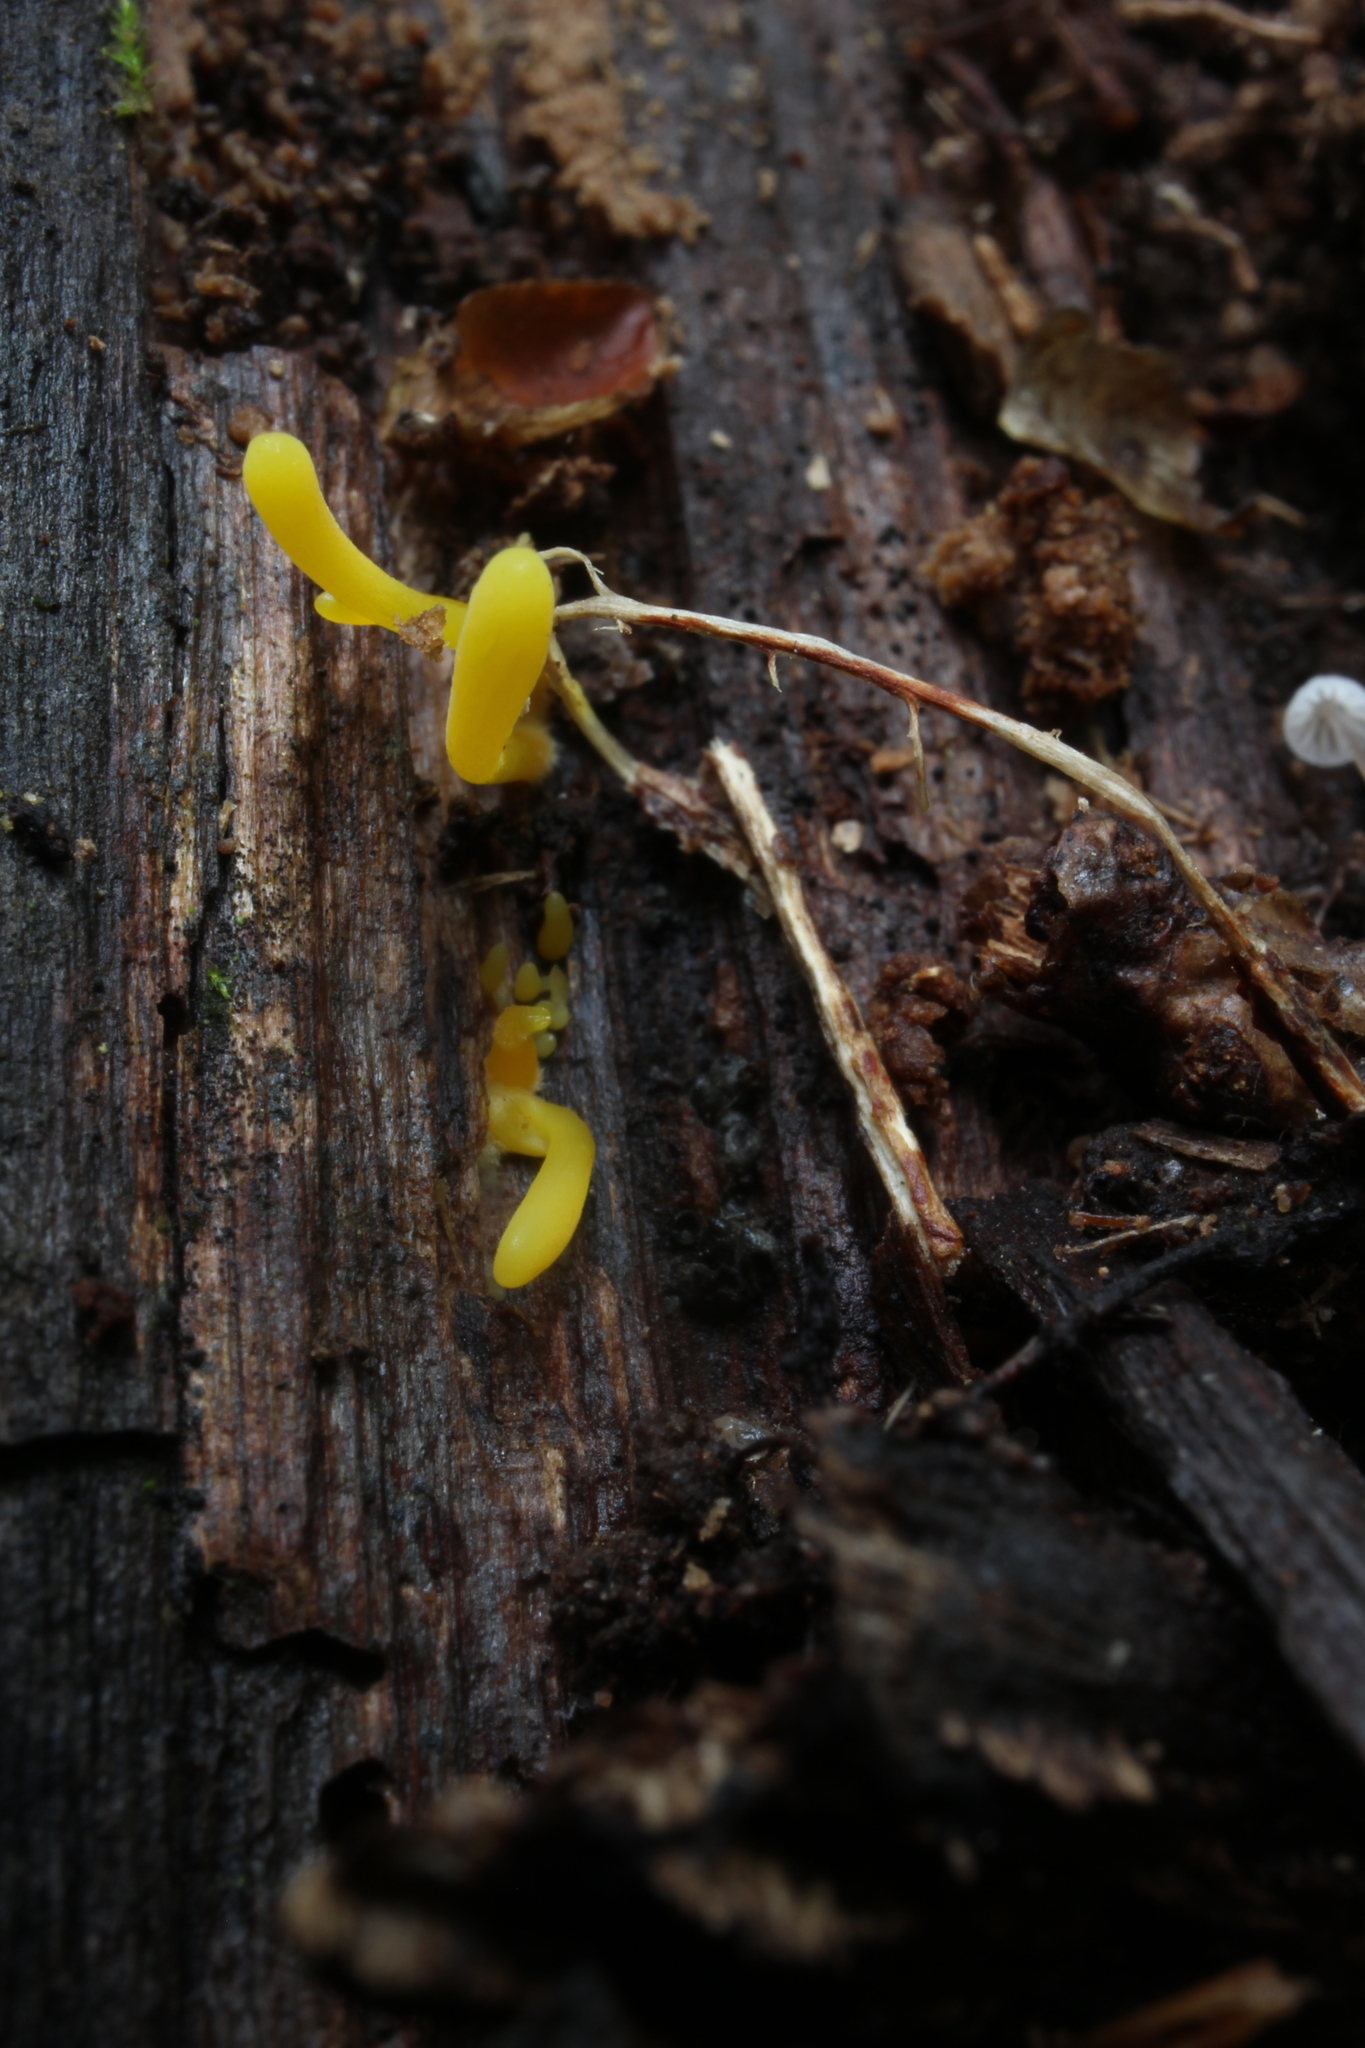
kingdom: Fungi
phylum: Basidiomycota
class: Agaricomycetes
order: Agaricales
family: Clavariaceae
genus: Clavulinopsis
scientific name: Clavulinopsis laeticolor
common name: Handsome club
